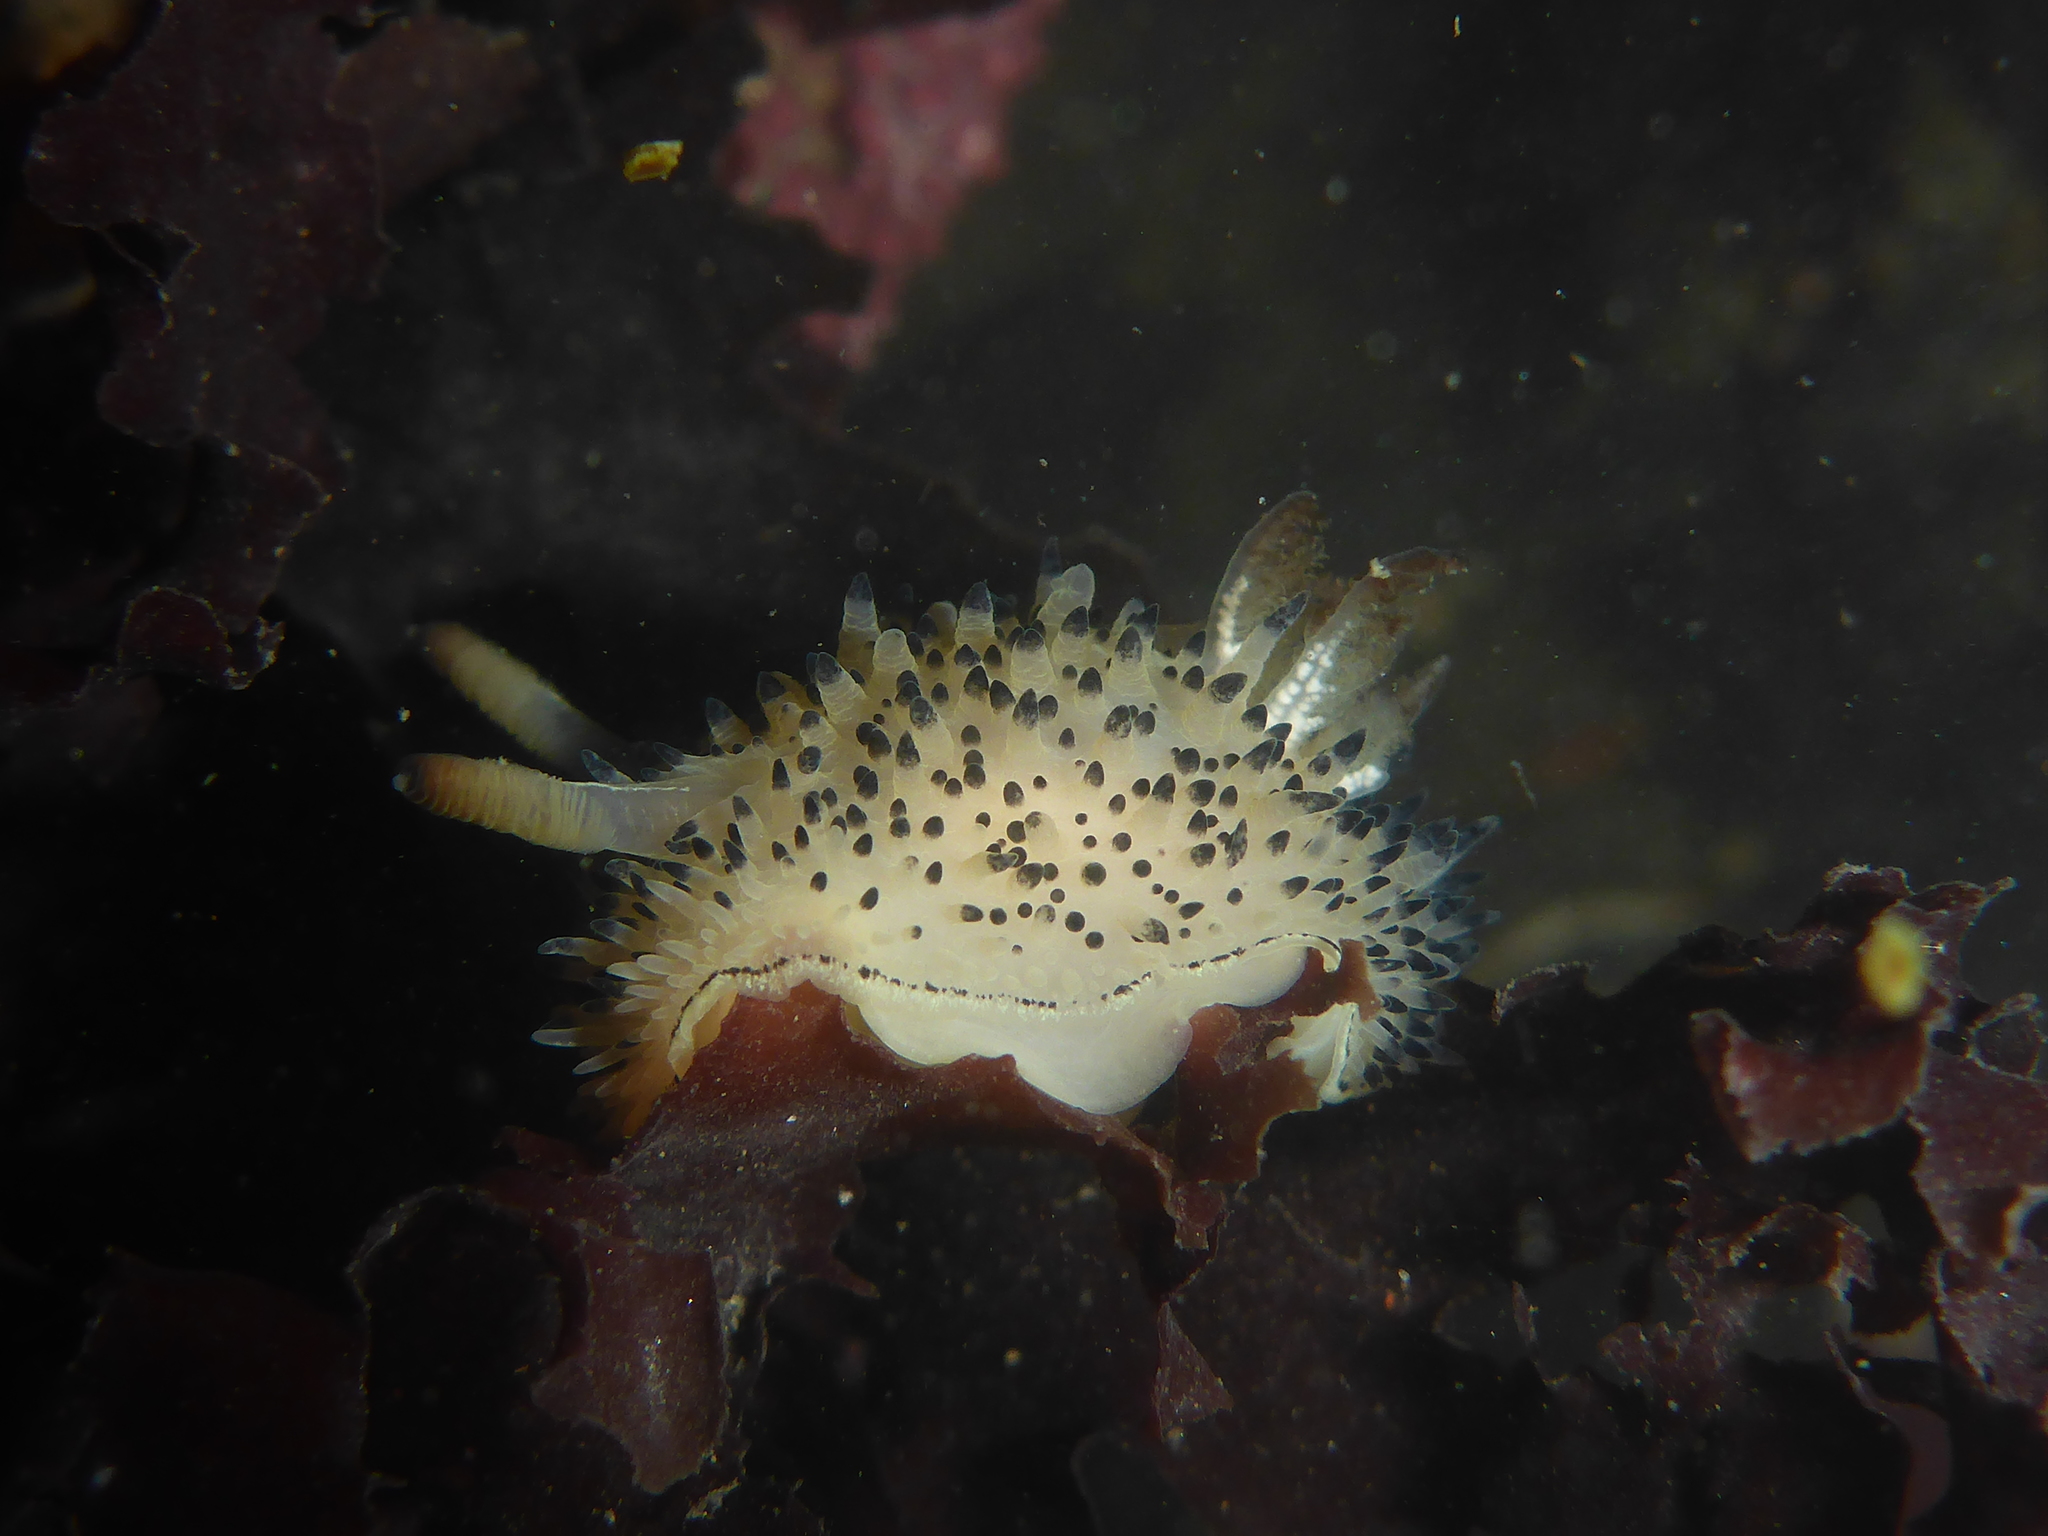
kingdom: Animalia
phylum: Mollusca
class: Gastropoda
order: Nudibranchia
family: Onchidorididae
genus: Acanthodoris
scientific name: Acanthodoris rhodoceras
